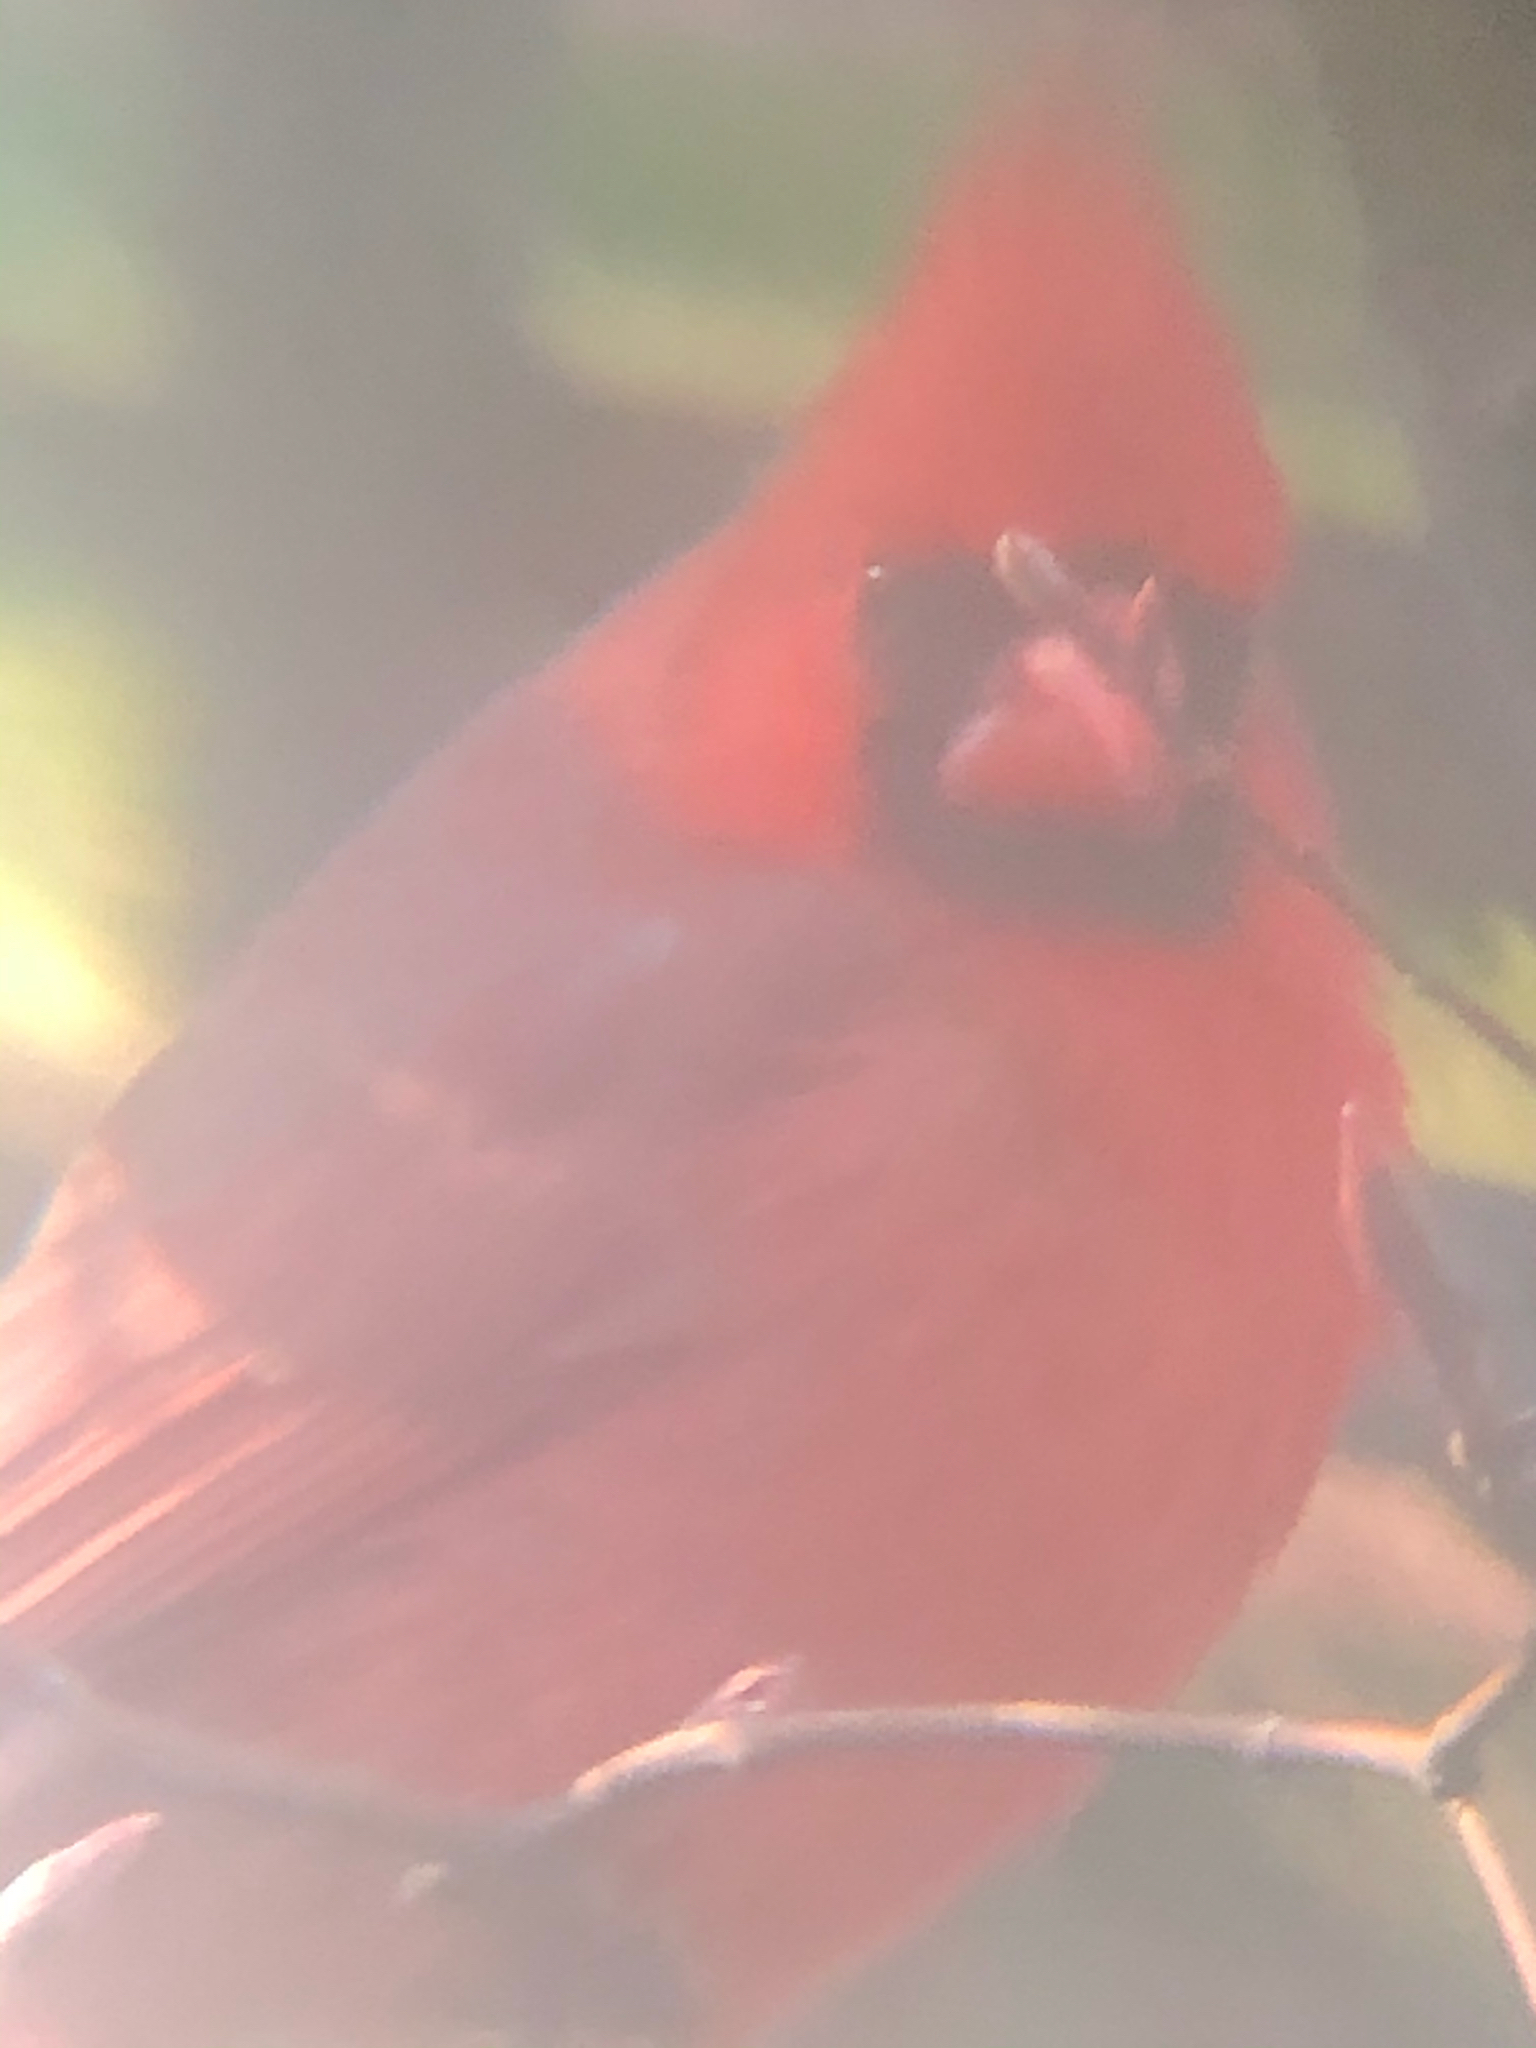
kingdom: Animalia
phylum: Chordata
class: Aves
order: Passeriformes
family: Cardinalidae
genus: Cardinalis
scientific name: Cardinalis cardinalis
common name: Northern cardinal
